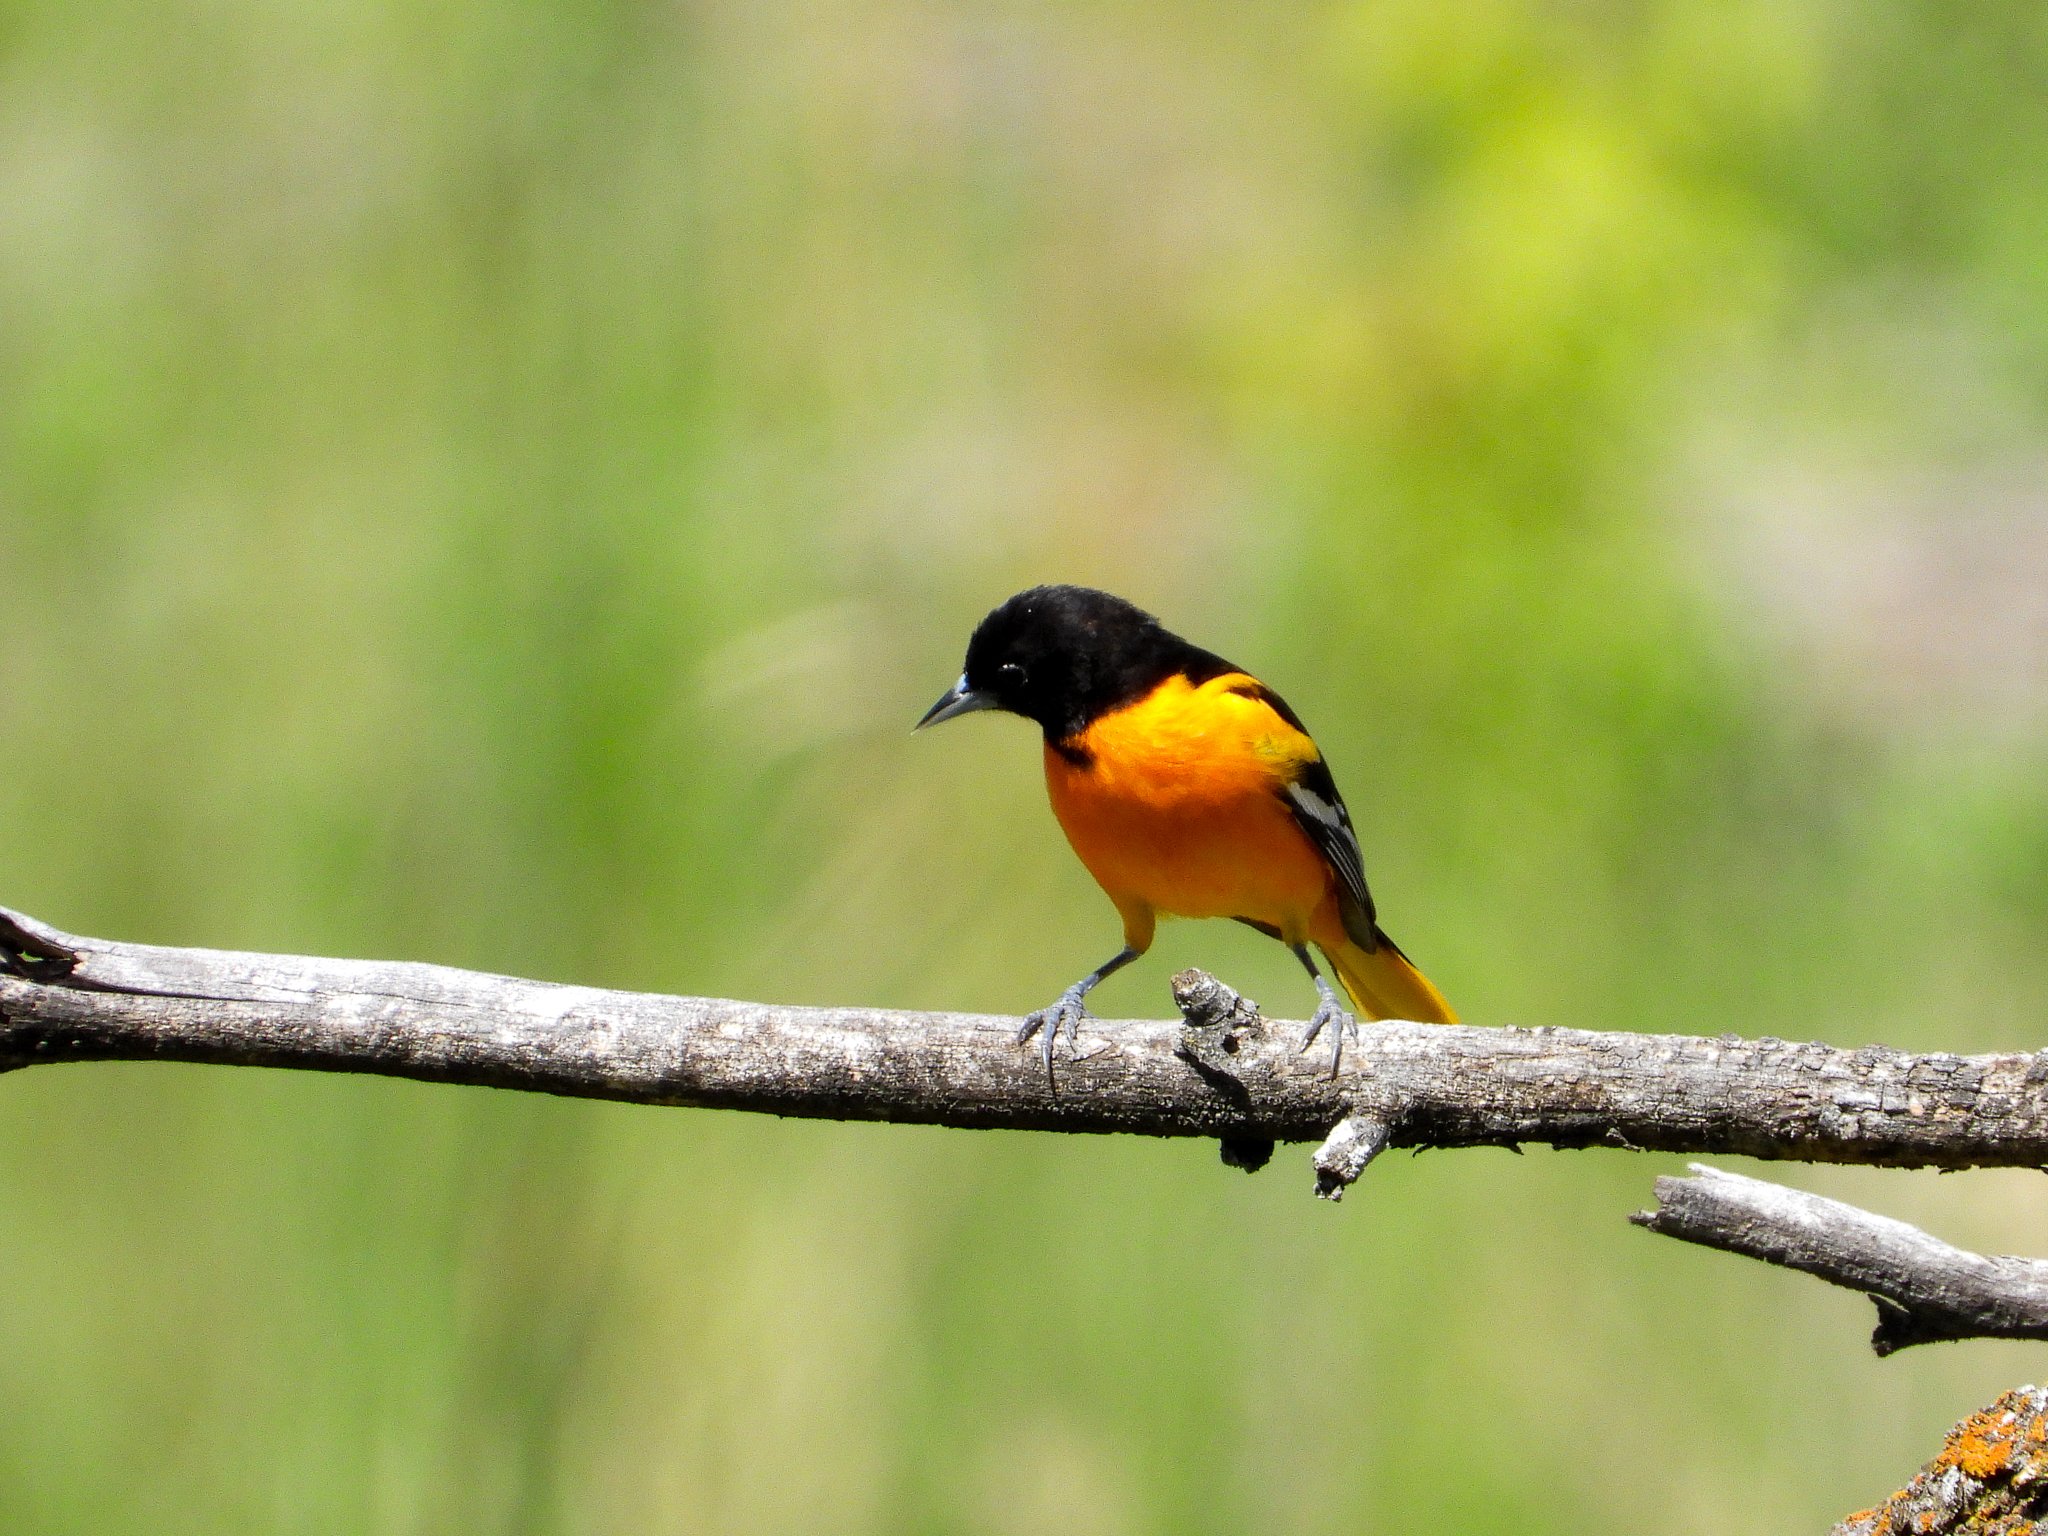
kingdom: Animalia
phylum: Chordata
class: Aves
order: Passeriformes
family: Icteridae
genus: Icterus
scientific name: Icterus galbula
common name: Baltimore oriole
